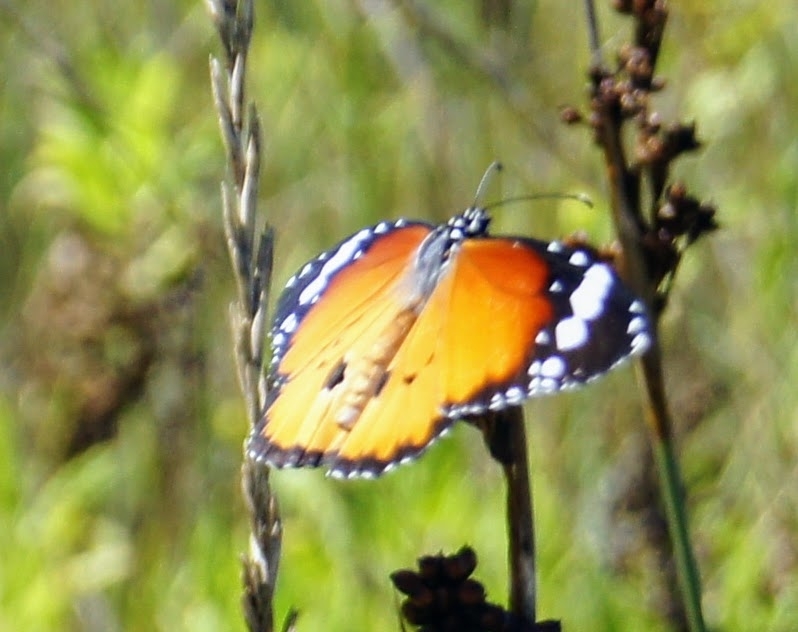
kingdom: Animalia
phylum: Arthropoda
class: Insecta
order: Lepidoptera
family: Nymphalidae
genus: Danaus
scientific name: Danaus chrysippus
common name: Plain tiger
